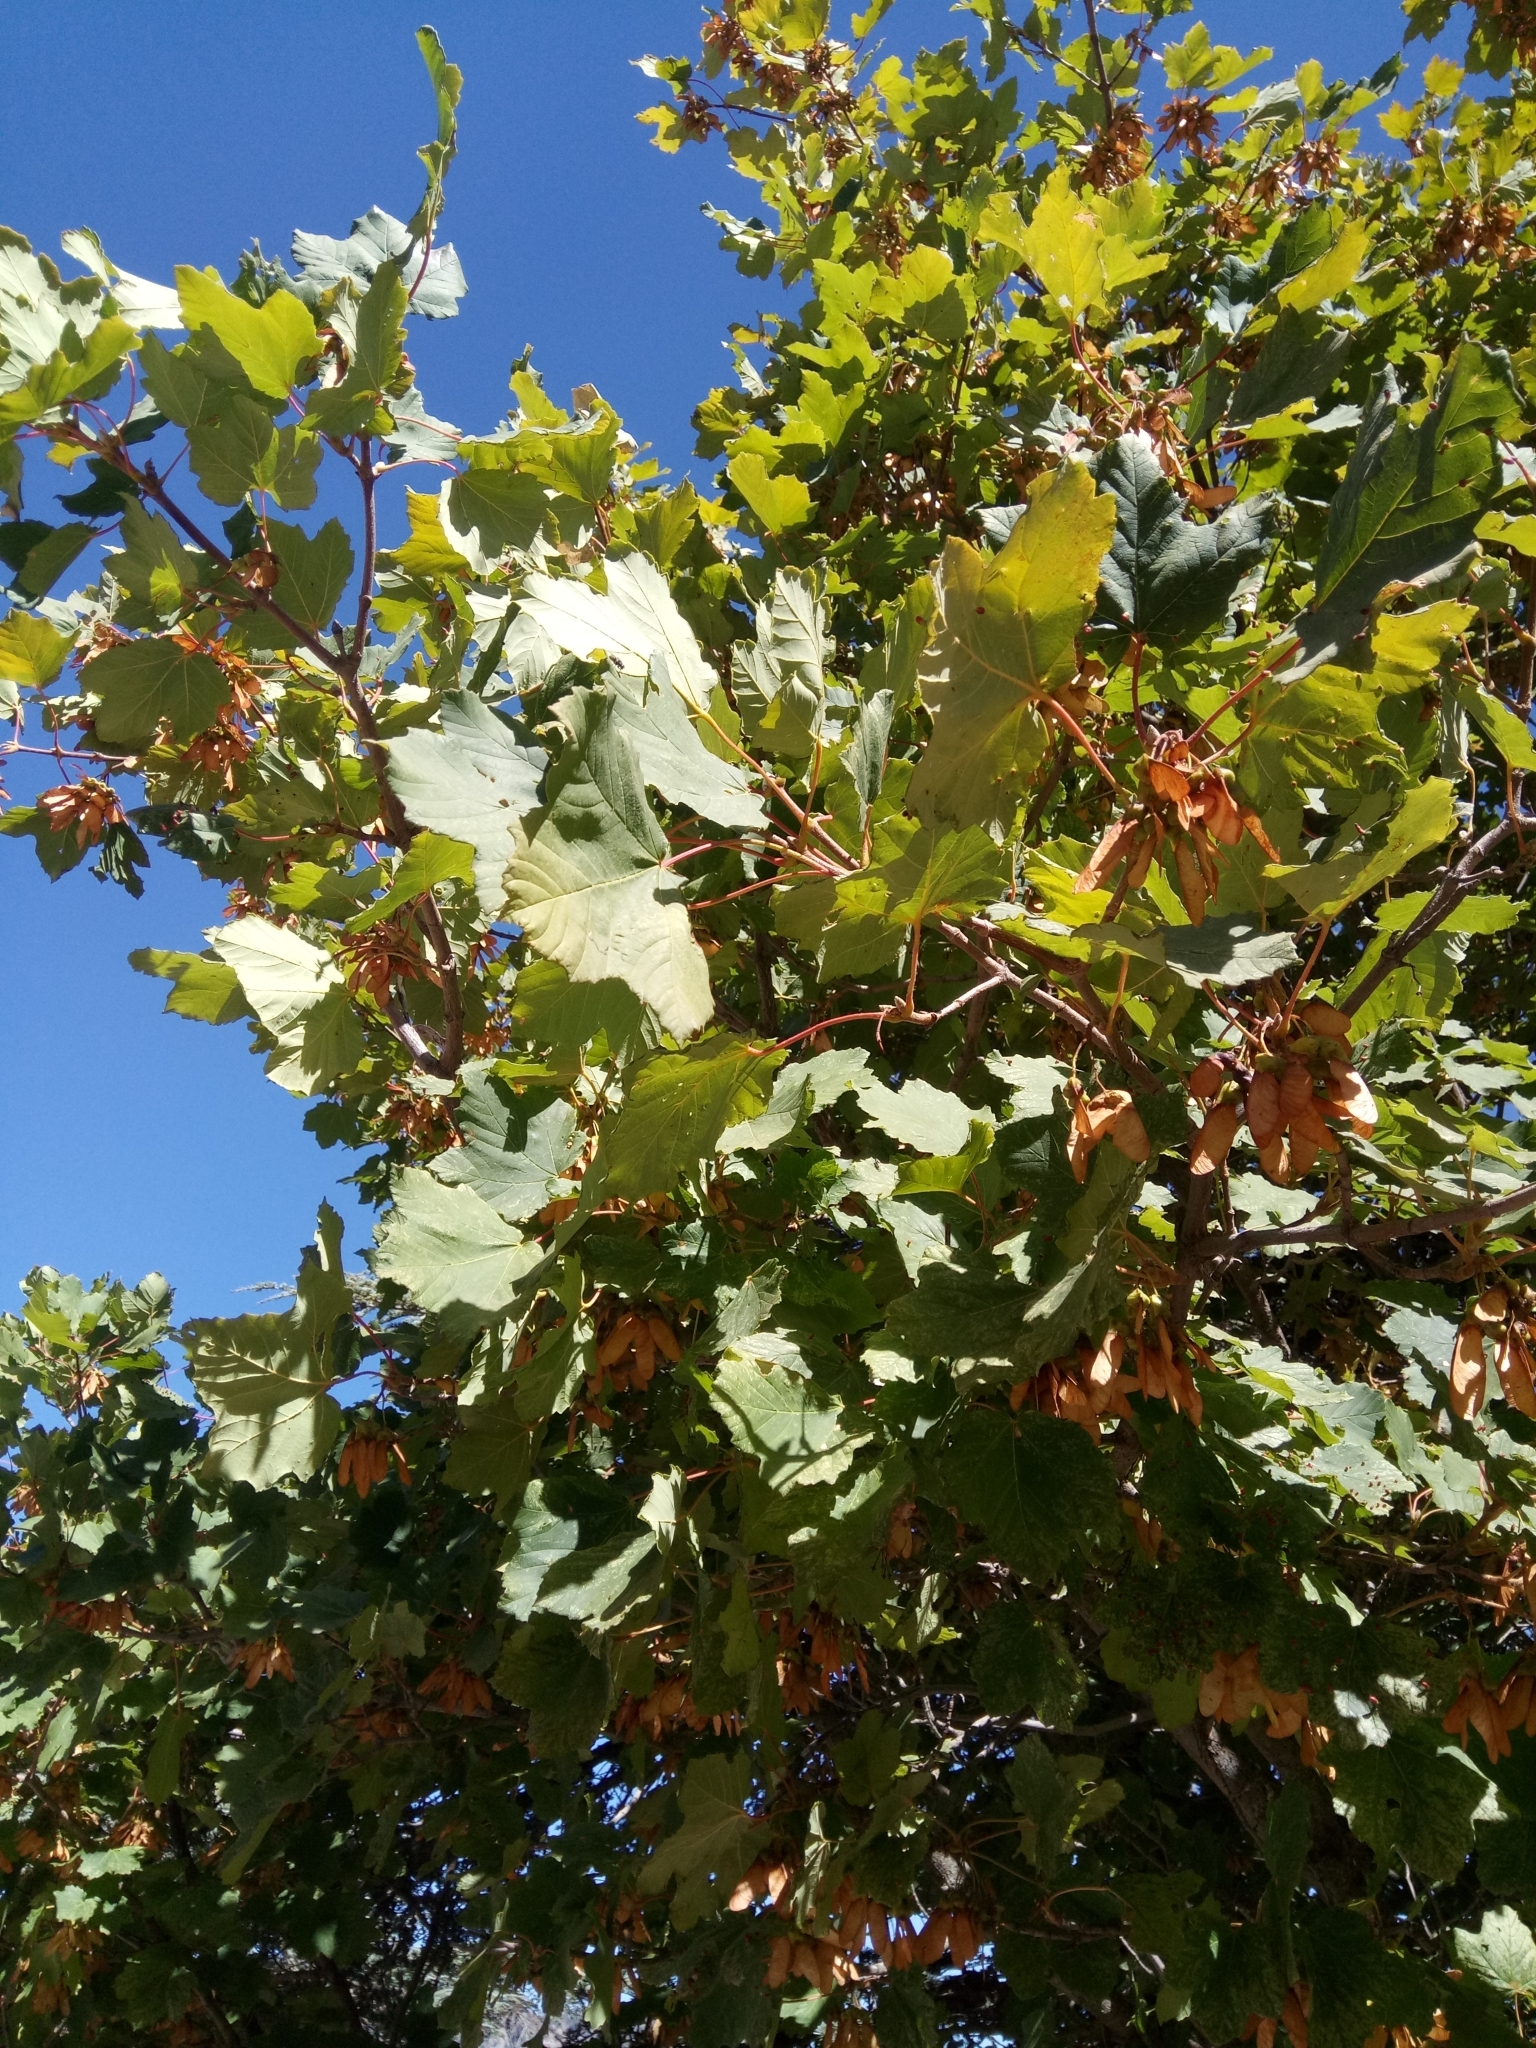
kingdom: Plantae
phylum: Tracheophyta
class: Magnoliopsida
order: Sapindales
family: Sapindaceae
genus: Acer
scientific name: Acer opalus
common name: Italian maple
